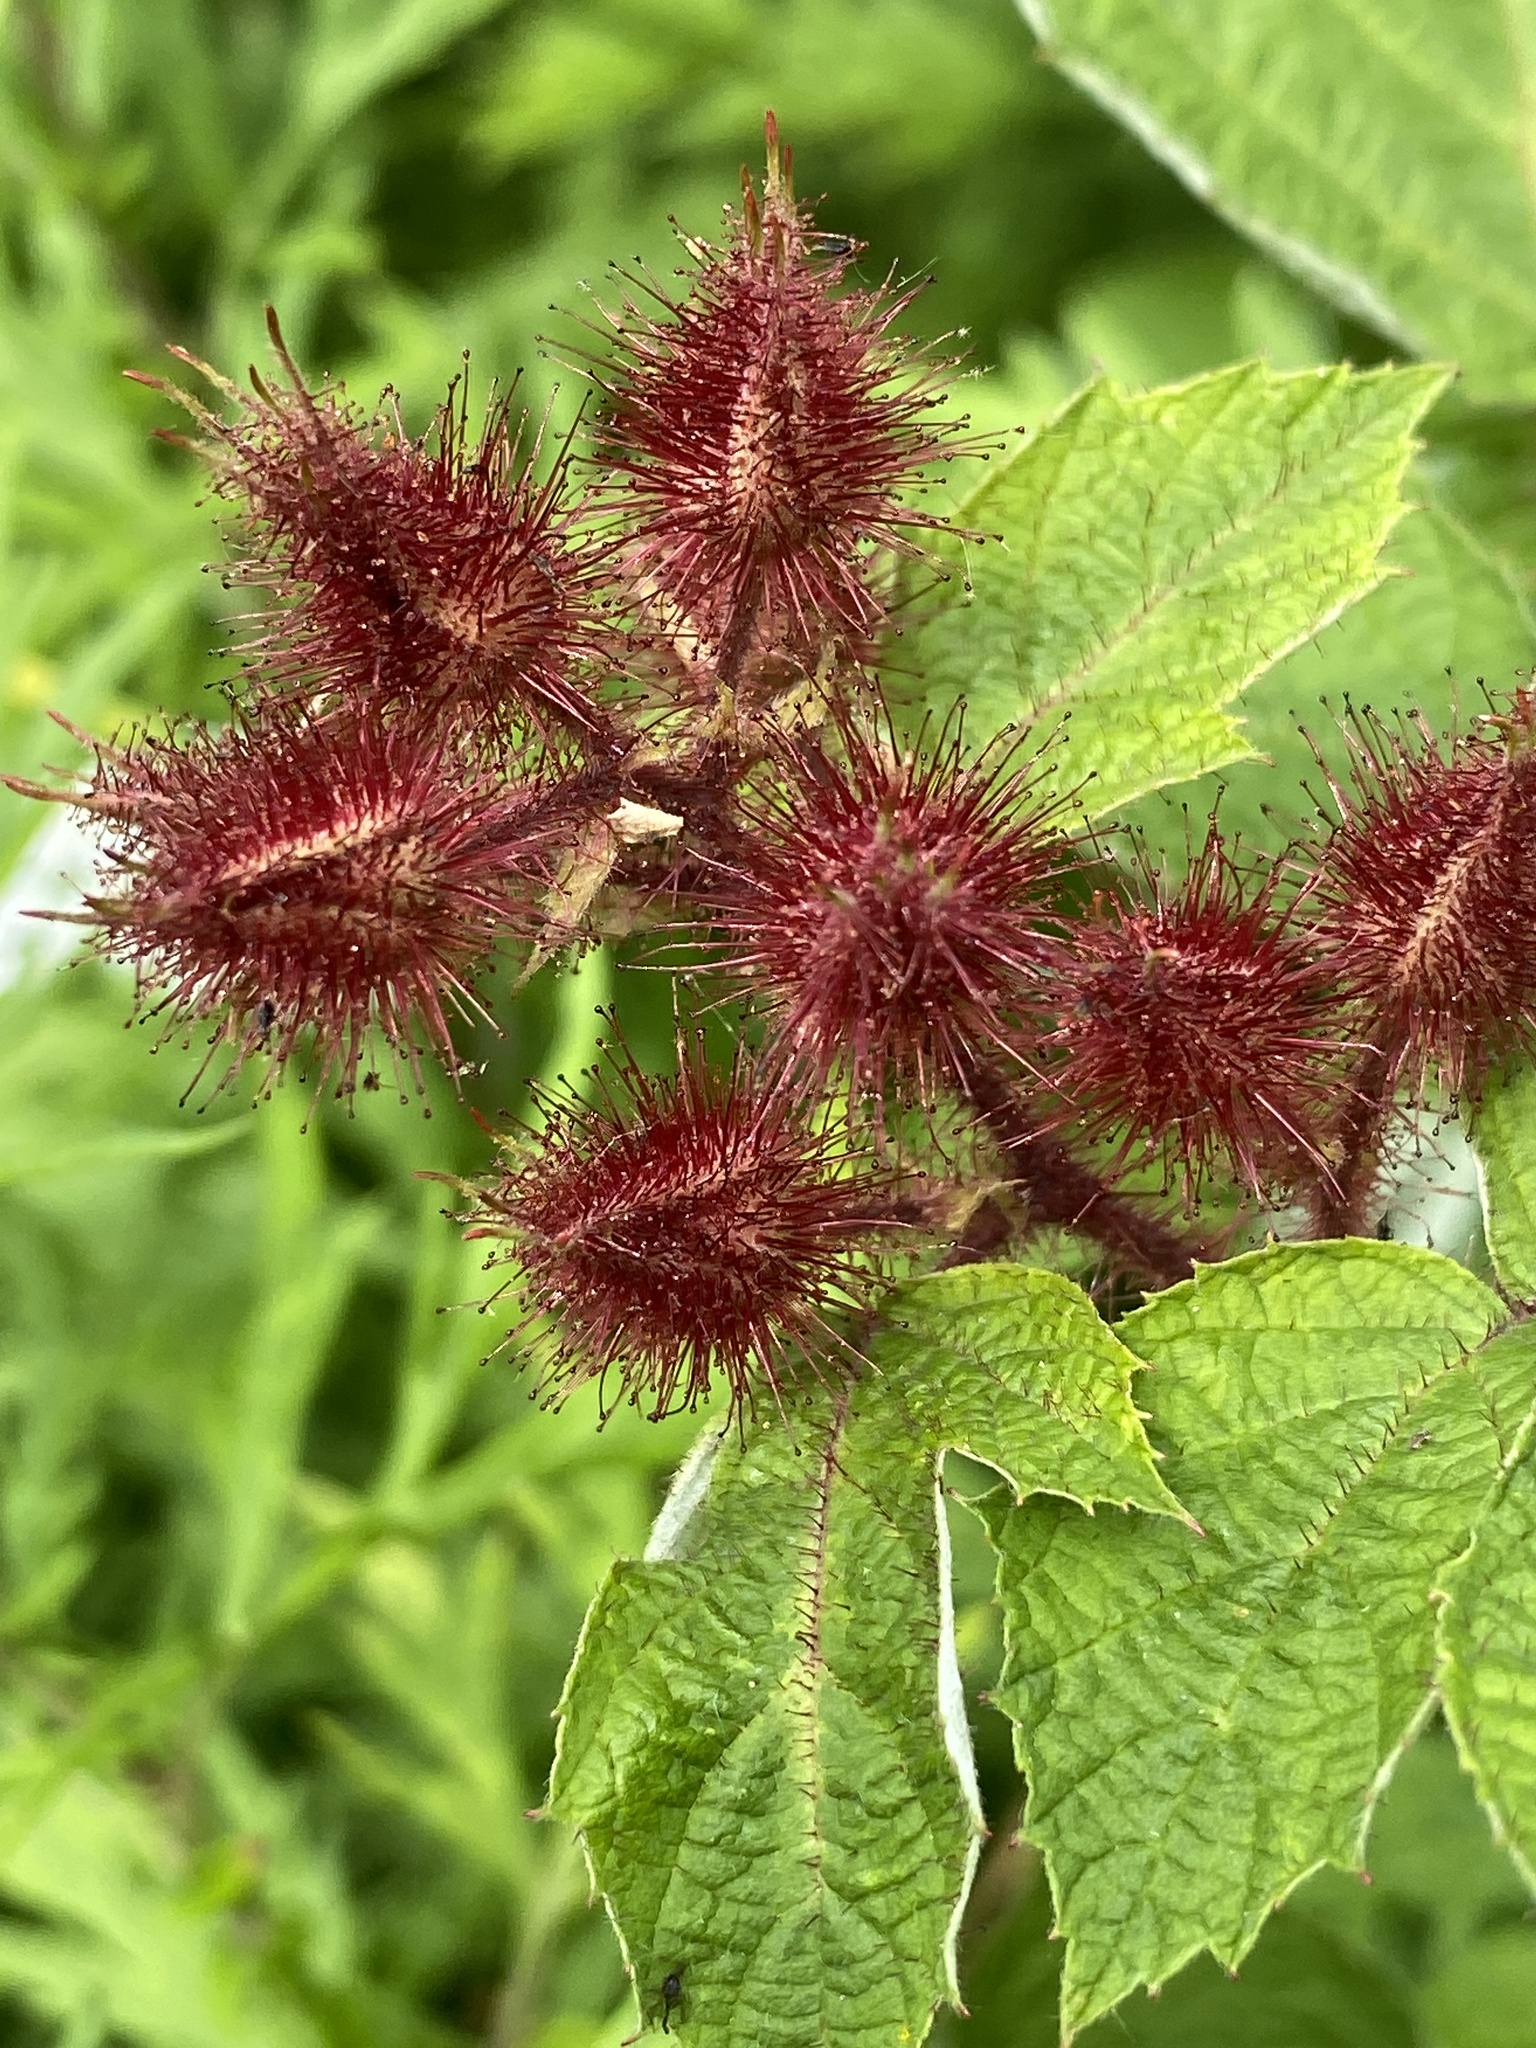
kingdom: Plantae
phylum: Tracheophyta
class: Magnoliopsida
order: Rosales
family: Rosaceae
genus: Rubus
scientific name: Rubus phoenicolasius
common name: Japanese wineberry
